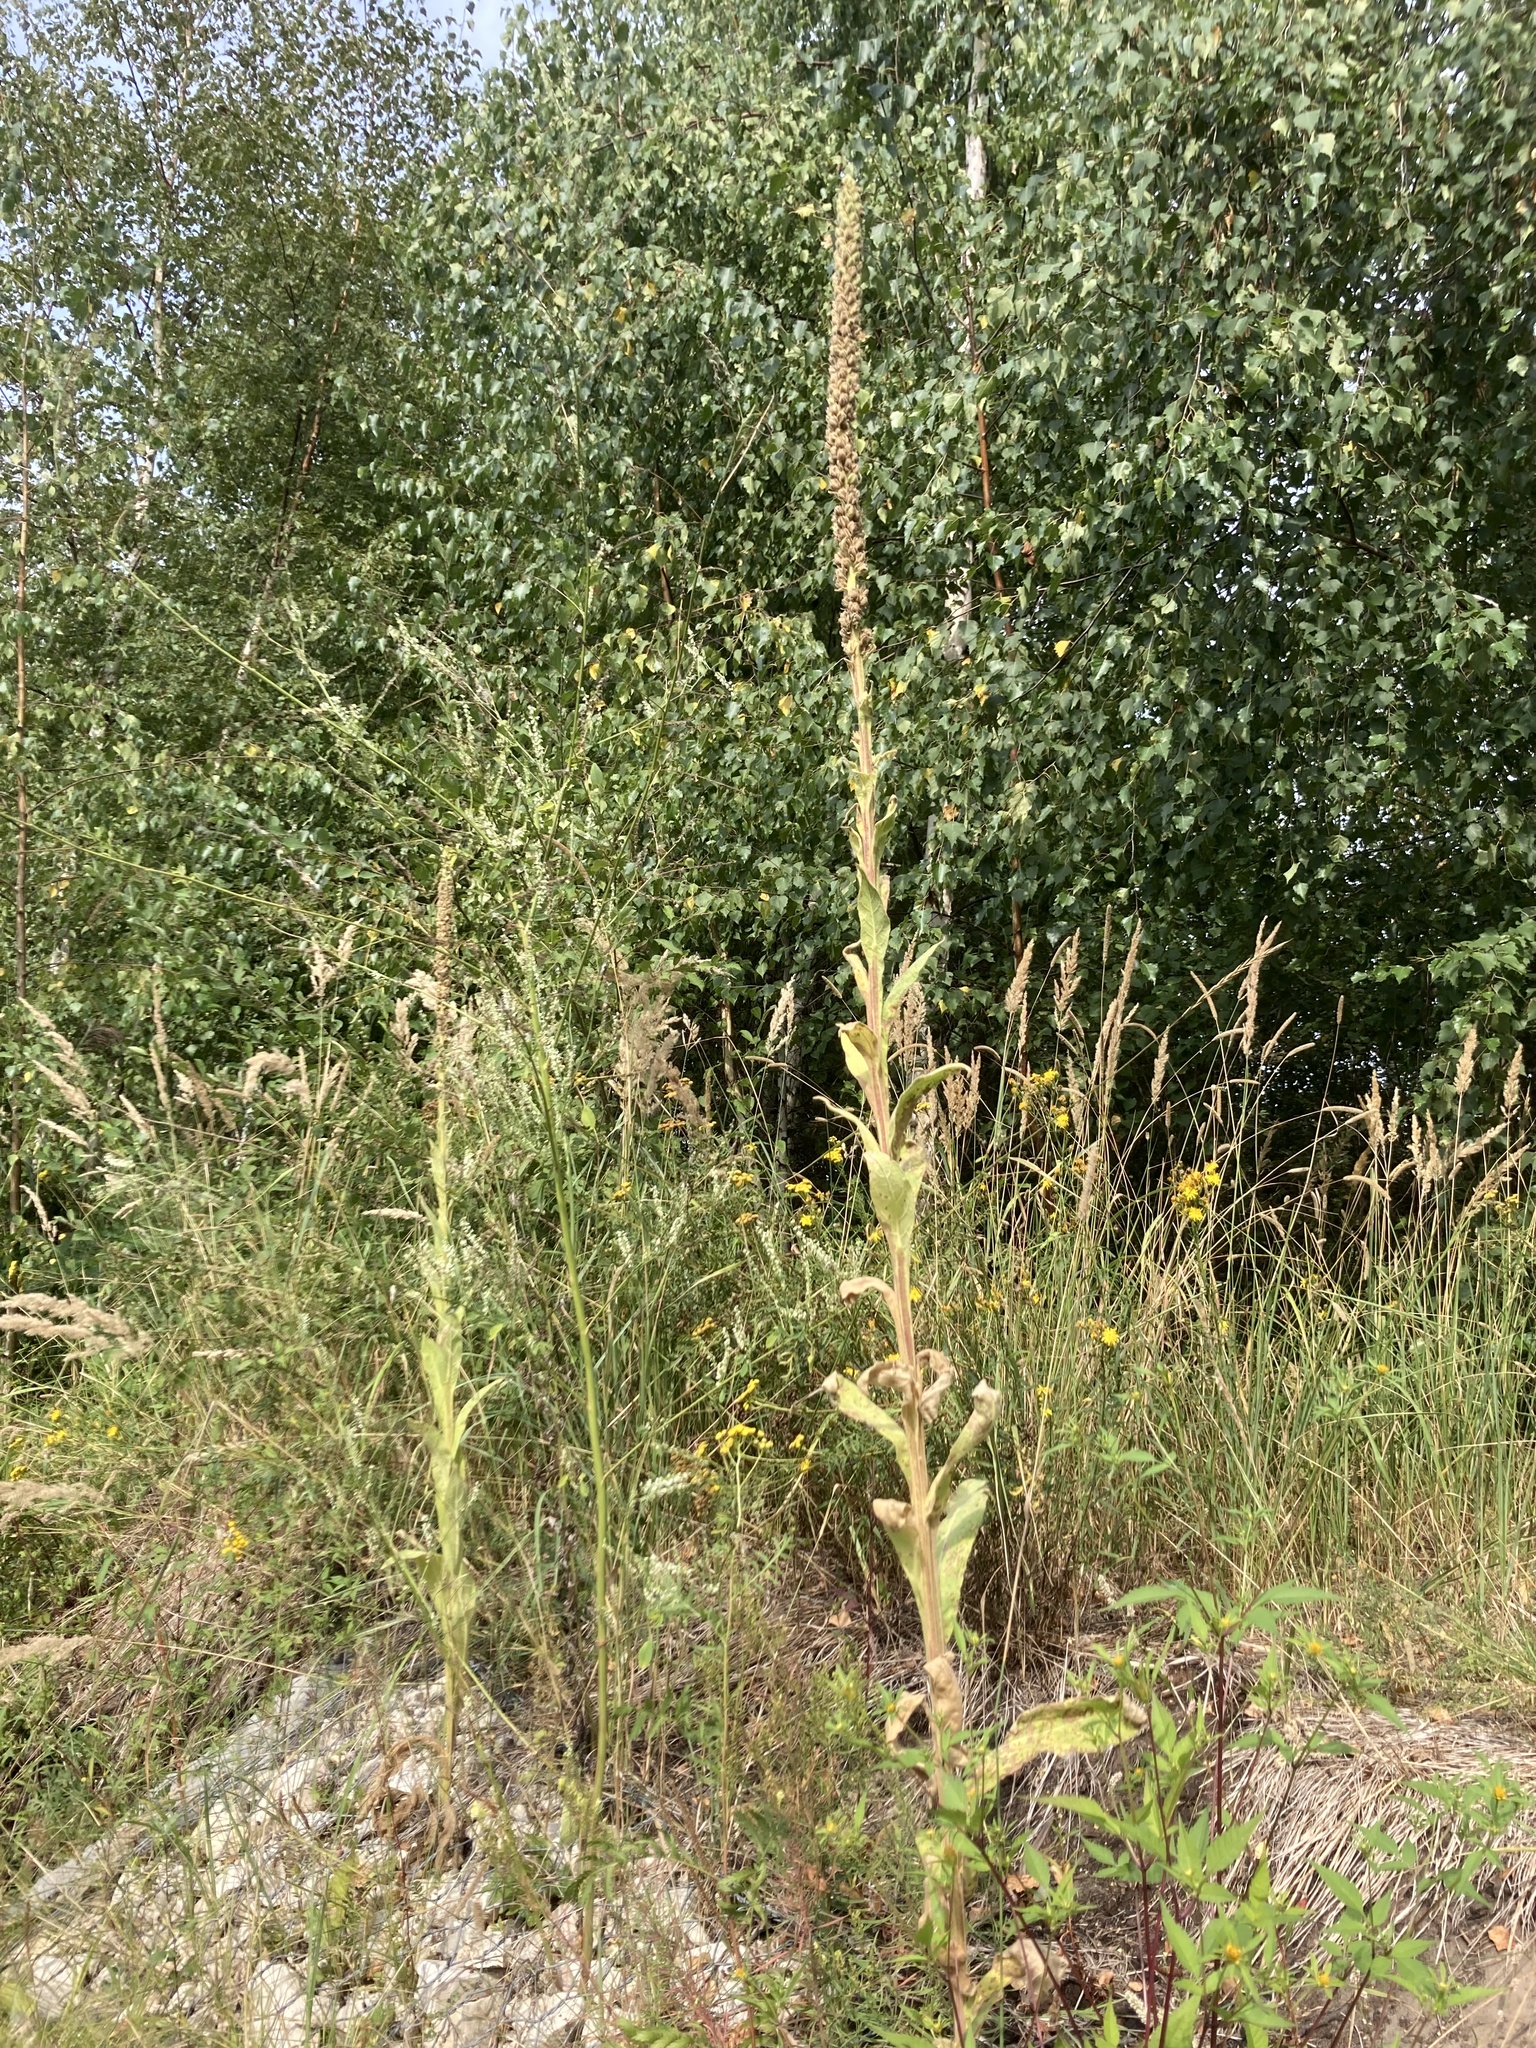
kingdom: Plantae
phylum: Tracheophyta
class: Magnoliopsida
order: Lamiales
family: Scrophulariaceae
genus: Verbascum
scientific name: Verbascum thapsus
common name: Common mullein
